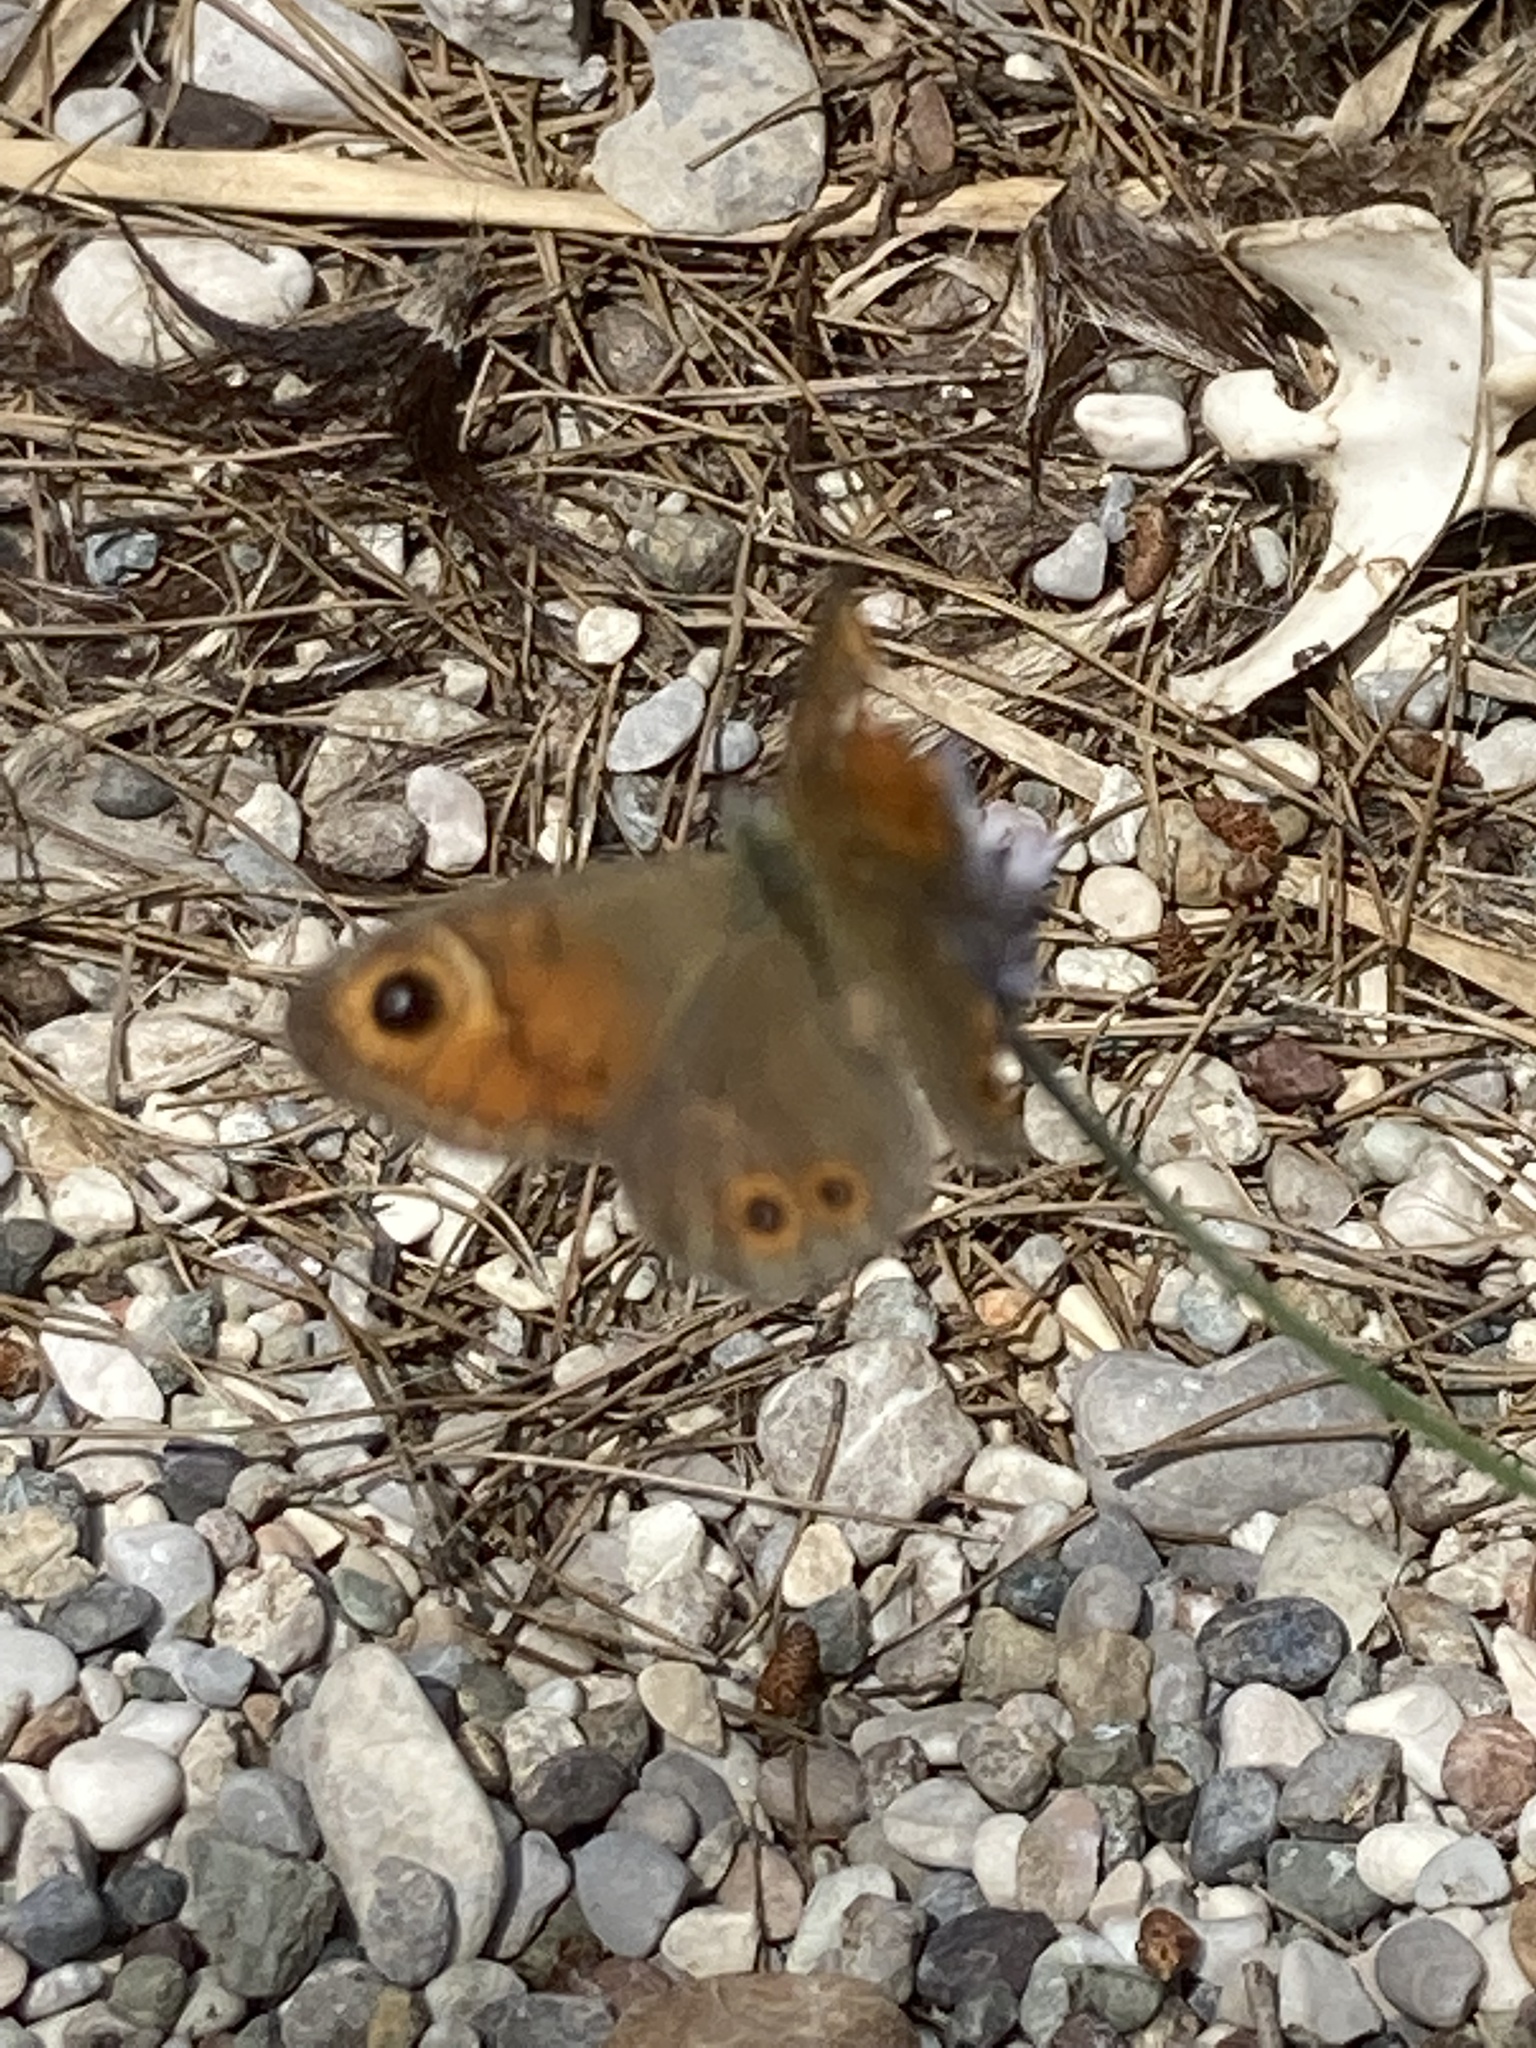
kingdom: Animalia
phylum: Arthropoda
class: Insecta
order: Lepidoptera
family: Nymphalidae
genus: Pararge
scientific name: Pararge Lasiommata maera
